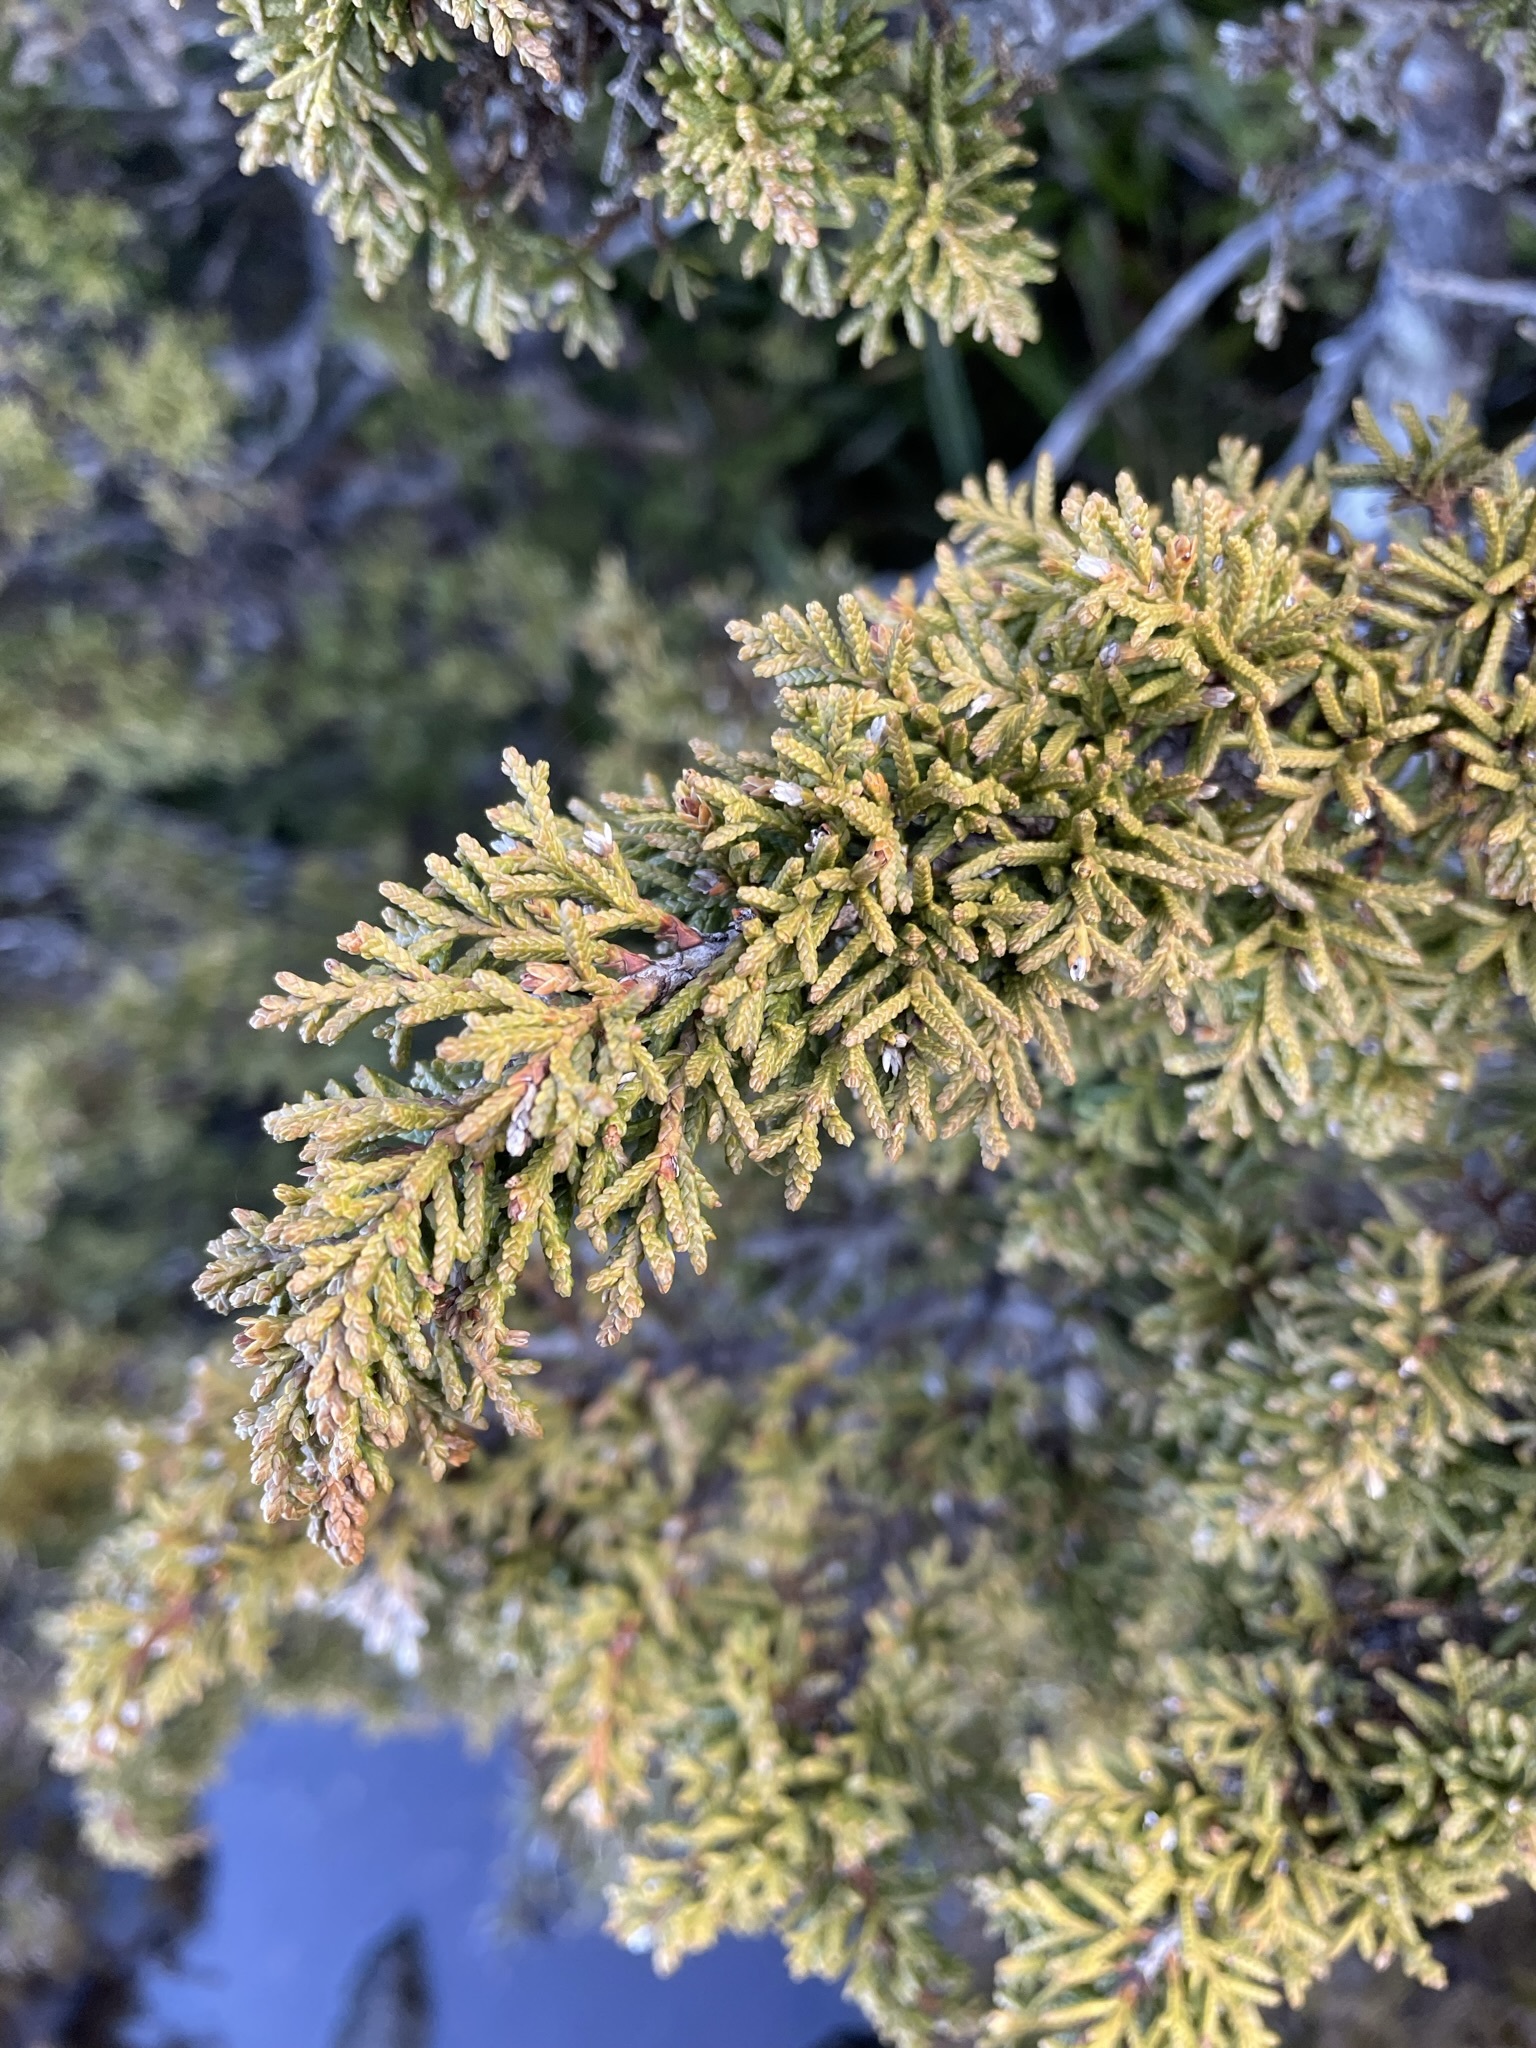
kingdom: Plantae
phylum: Tracheophyta
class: Pinopsida
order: Pinales
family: Cupressaceae
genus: Diselma
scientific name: Diselma archeri
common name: Cheshunt pine
